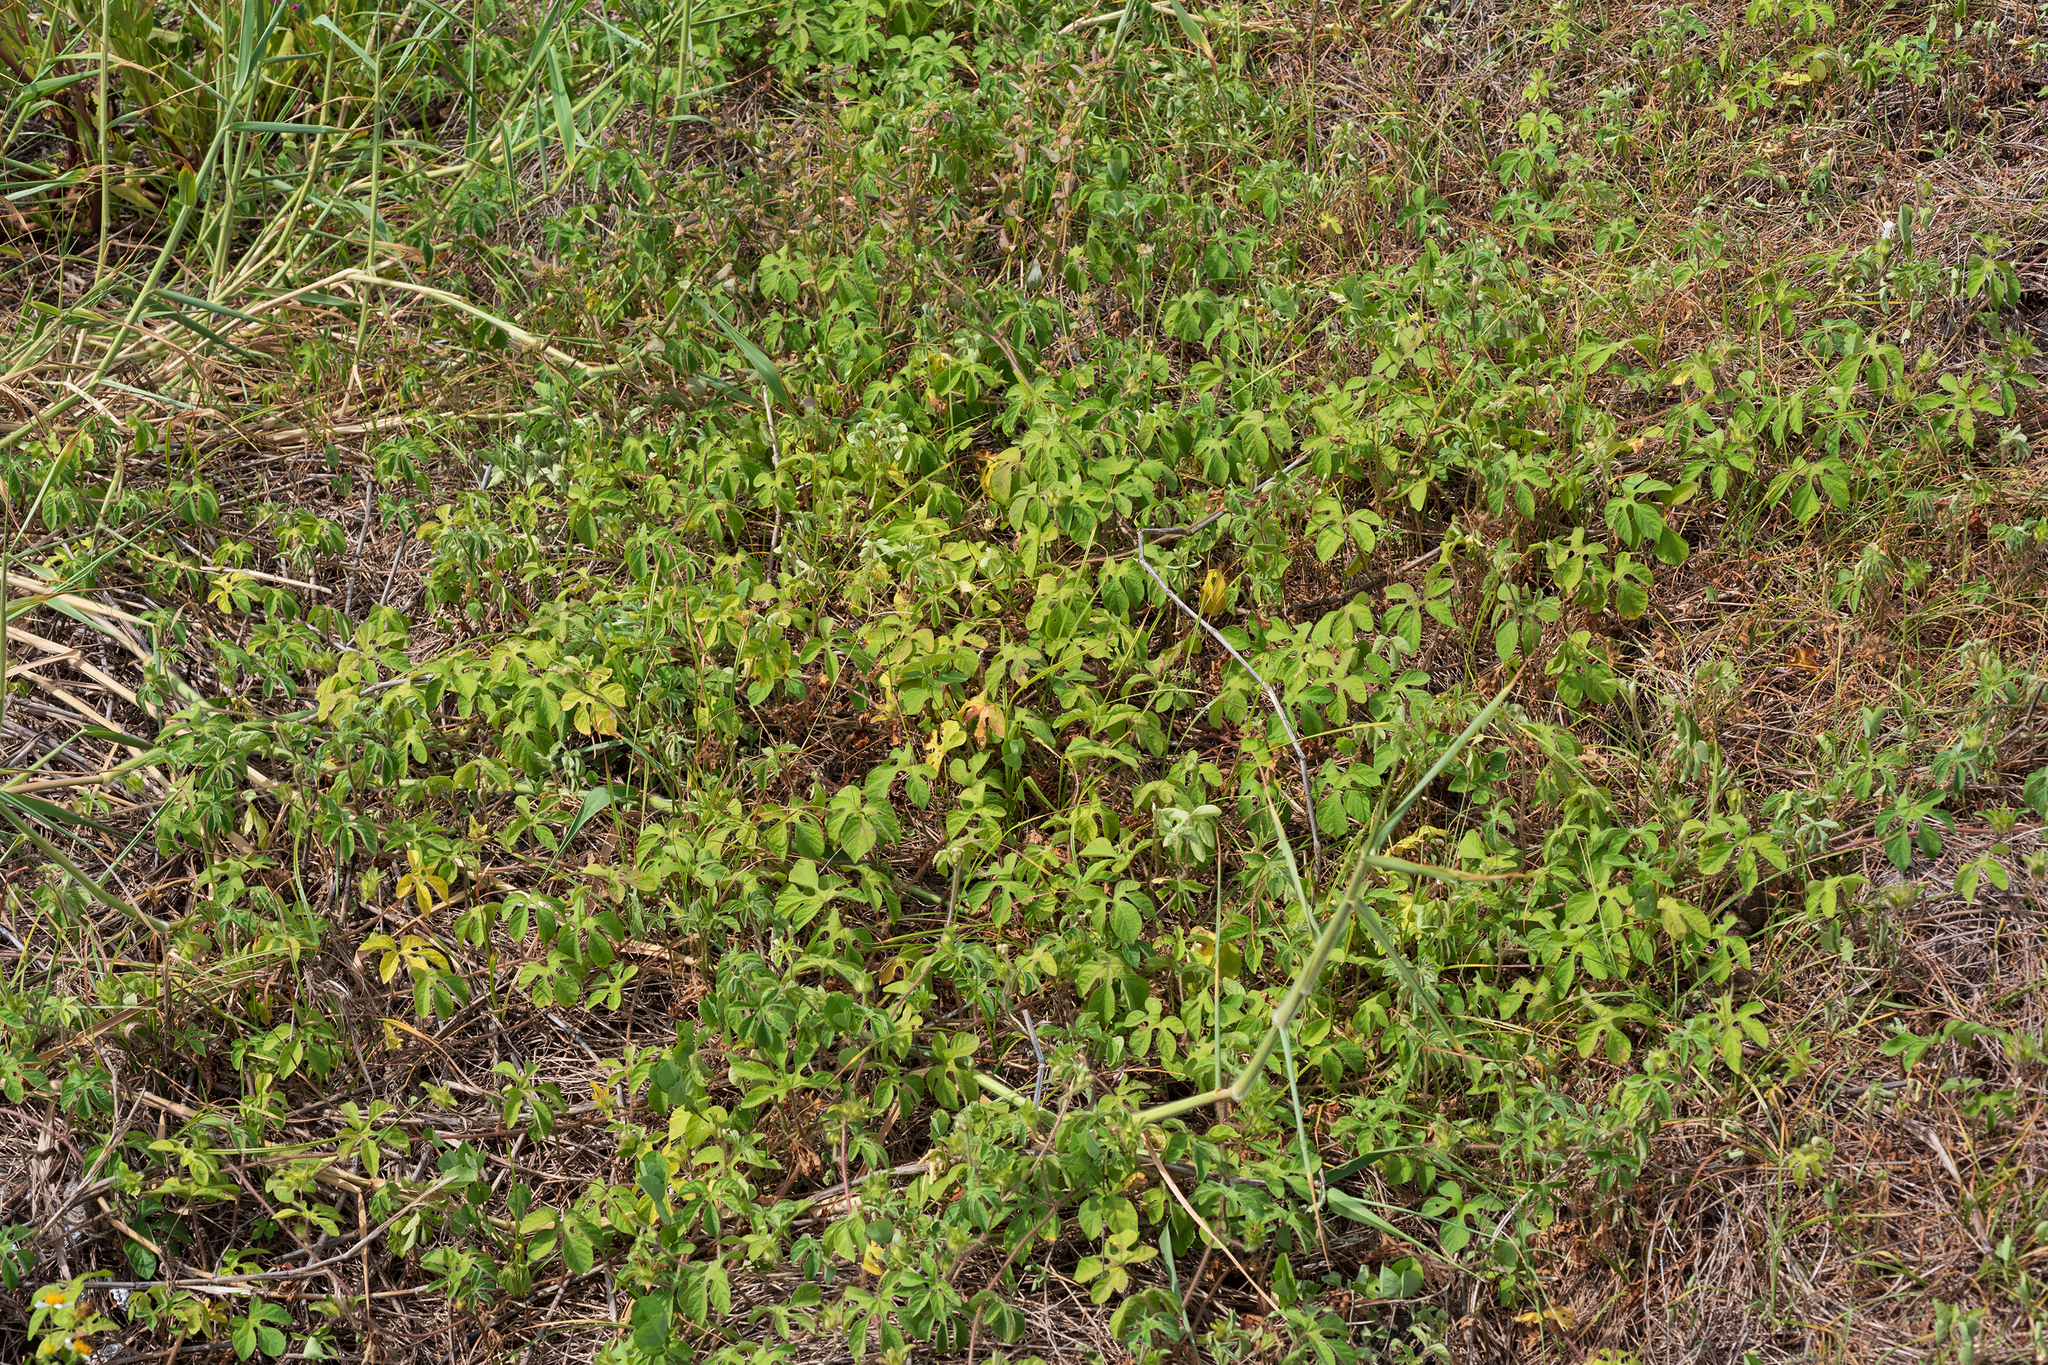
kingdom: Plantae
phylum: Tracheophyta
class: Magnoliopsida
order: Solanales
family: Convolvulaceae
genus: Ipomoea
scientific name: Ipomoea pes-tigridis
